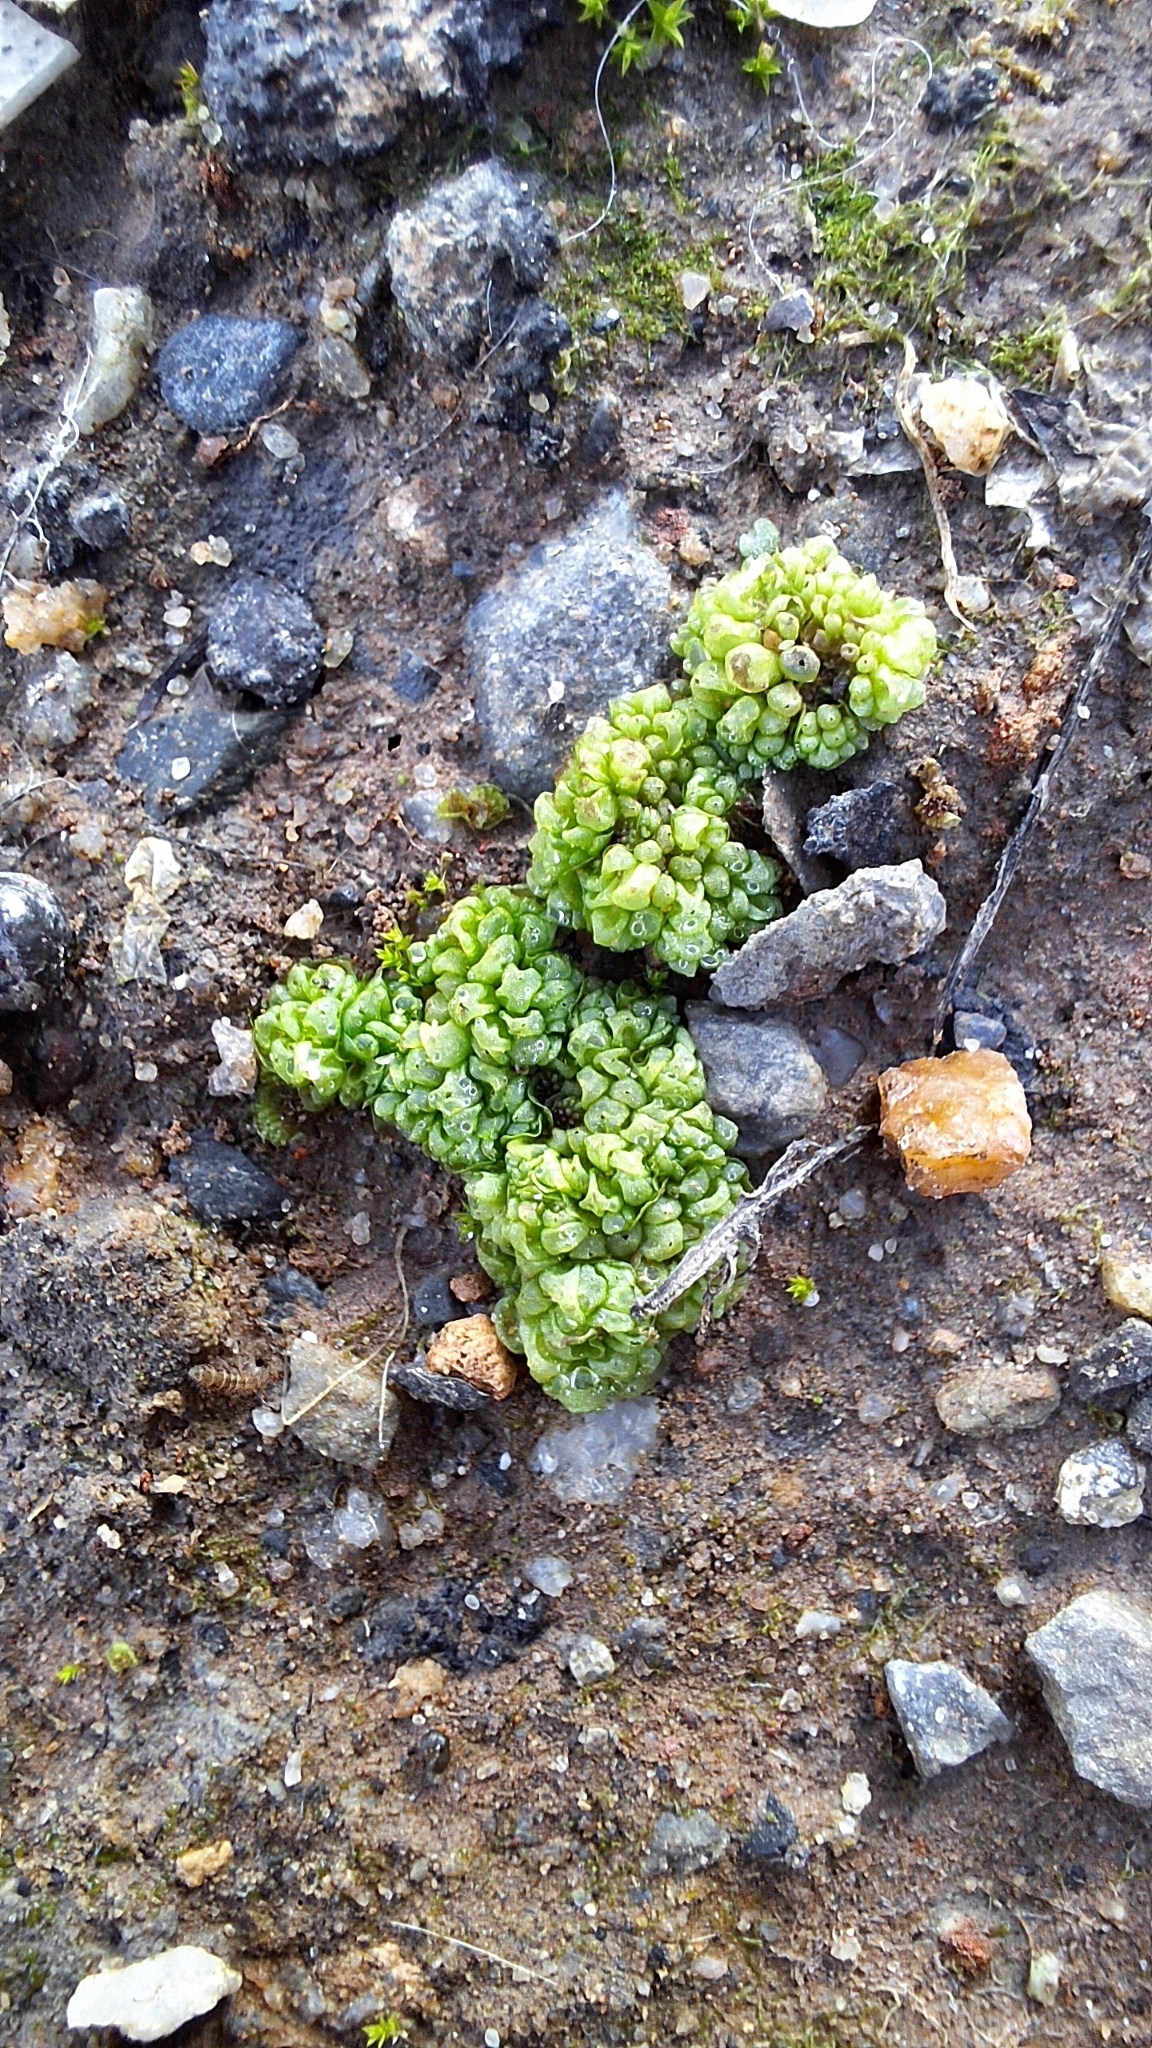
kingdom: Plantae
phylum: Marchantiophyta
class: Marchantiopsida
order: Sphaerocarpales
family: Sphaerocarpaceae
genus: Sphaerocarpos
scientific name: Sphaerocarpos texanus
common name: Texas balloonwort
